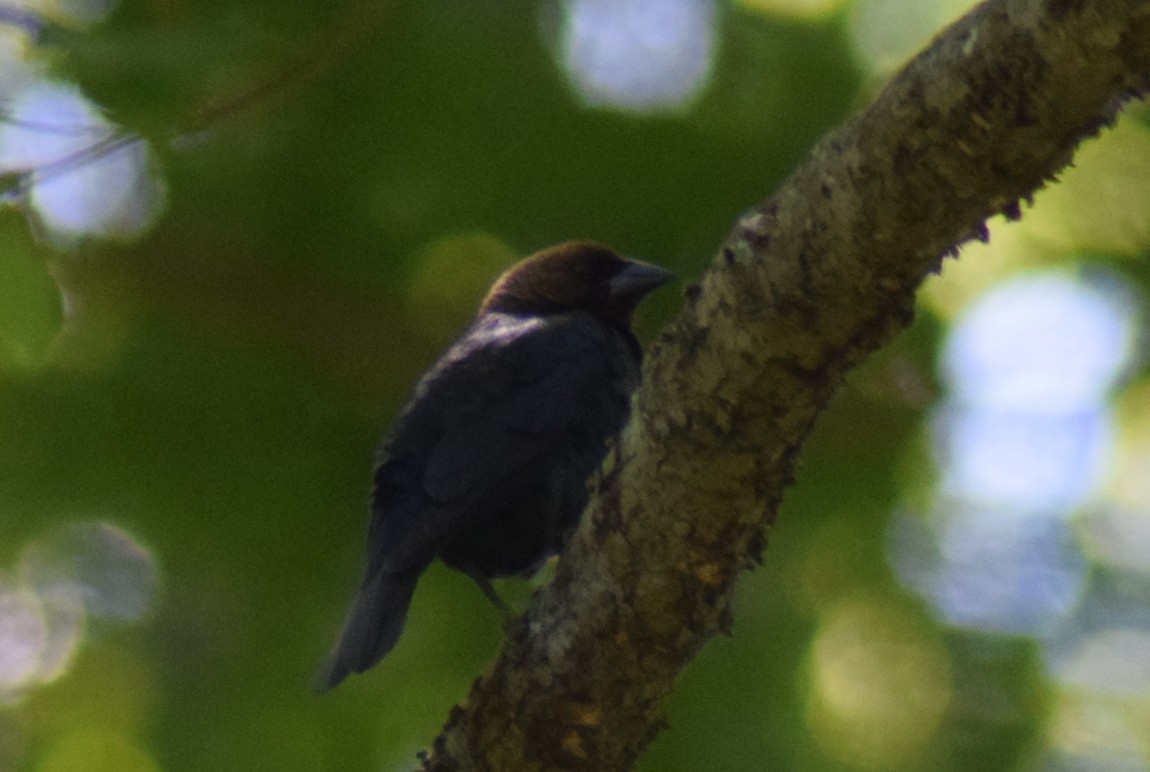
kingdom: Animalia
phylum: Chordata
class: Aves
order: Passeriformes
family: Icteridae
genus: Molothrus
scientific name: Molothrus ater
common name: Brown-headed cowbird
